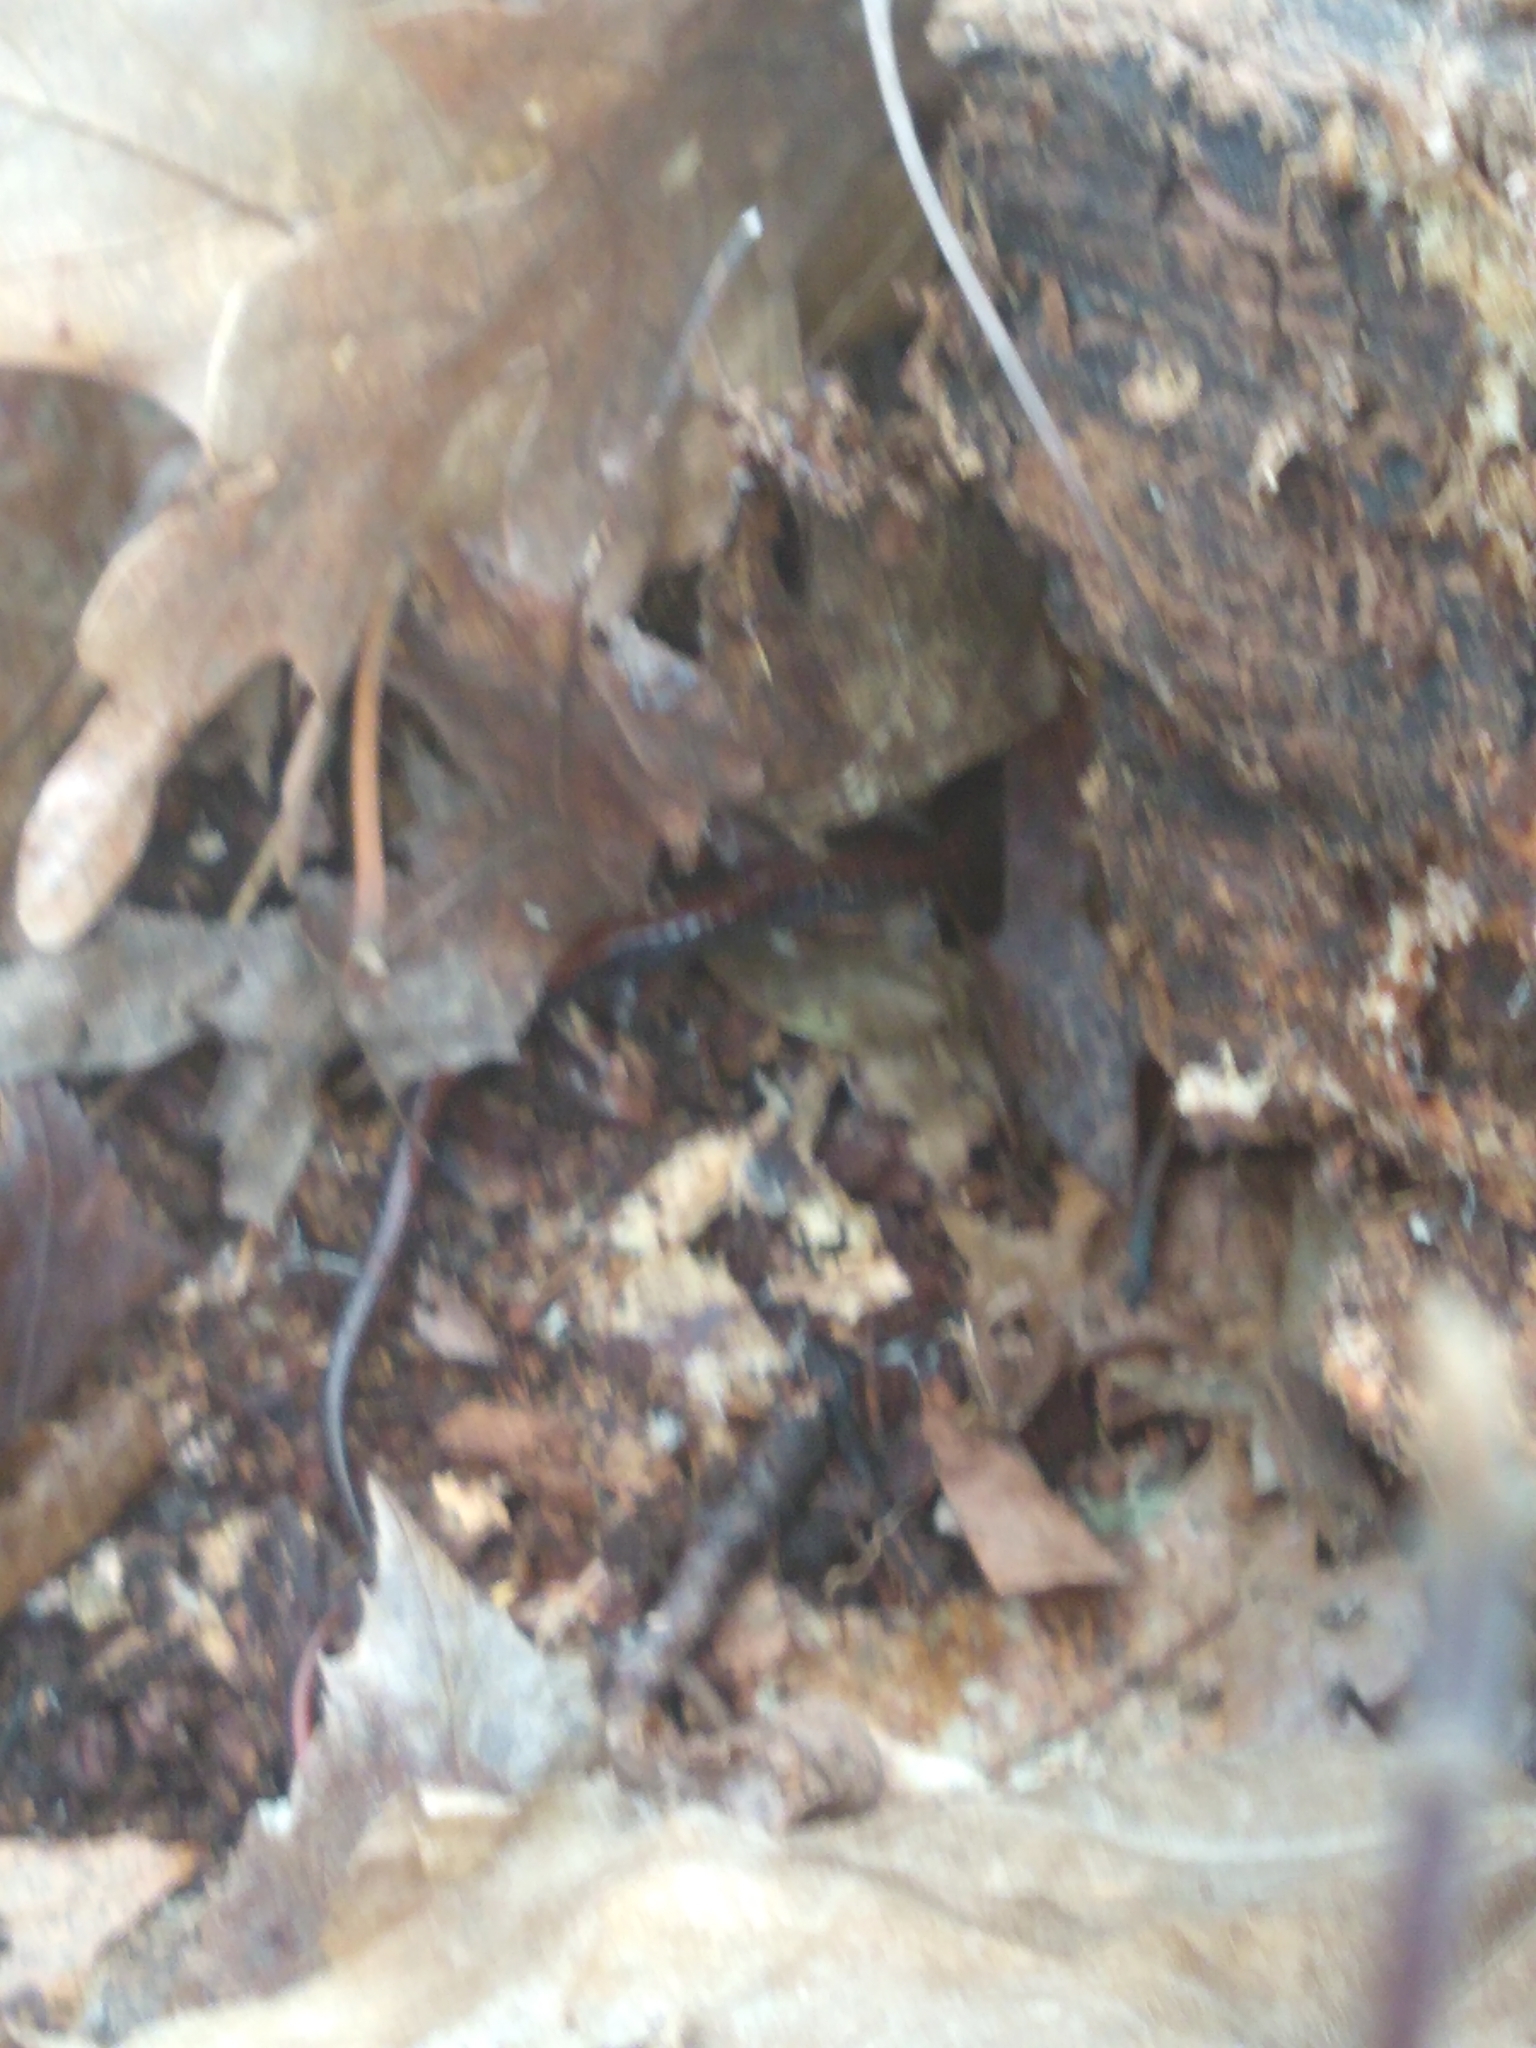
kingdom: Animalia
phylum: Chordata
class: Amphibia
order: Caudata
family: Plethodontidae
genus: Plethodon
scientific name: Plethodon cinereus
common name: Redback salamander
